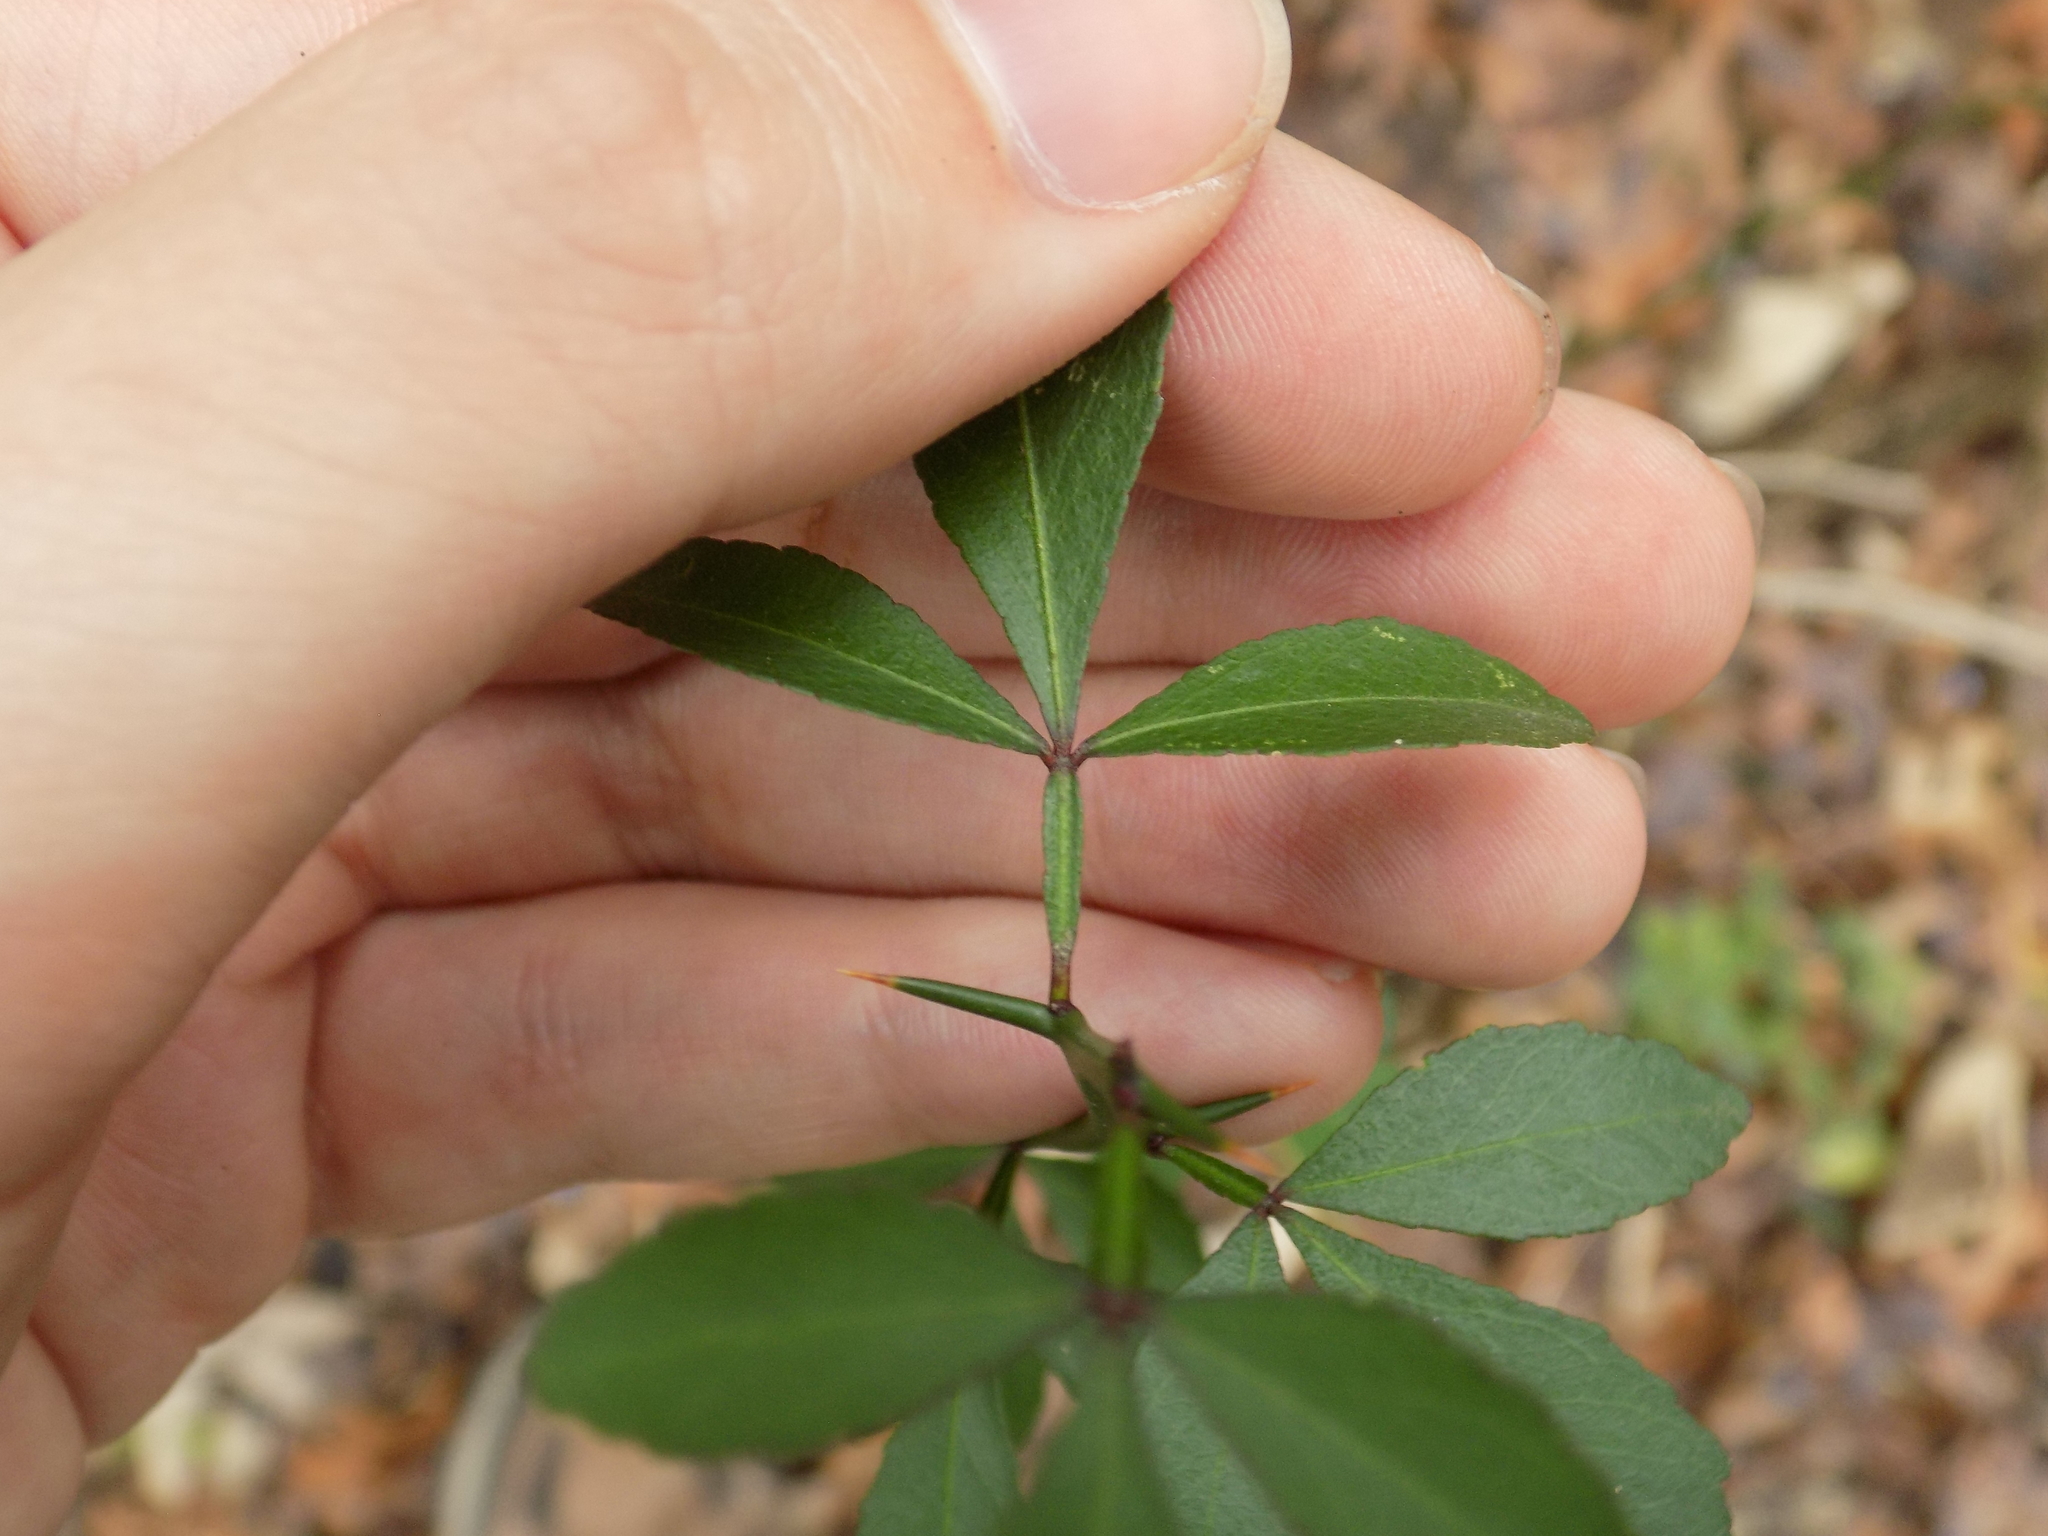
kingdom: Plantae
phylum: Tracheophyta
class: Magnoliopsida
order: Sapindales
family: Rutaceae
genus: Citrus
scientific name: Citrus trifoliata
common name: Japanese bitter-orange
